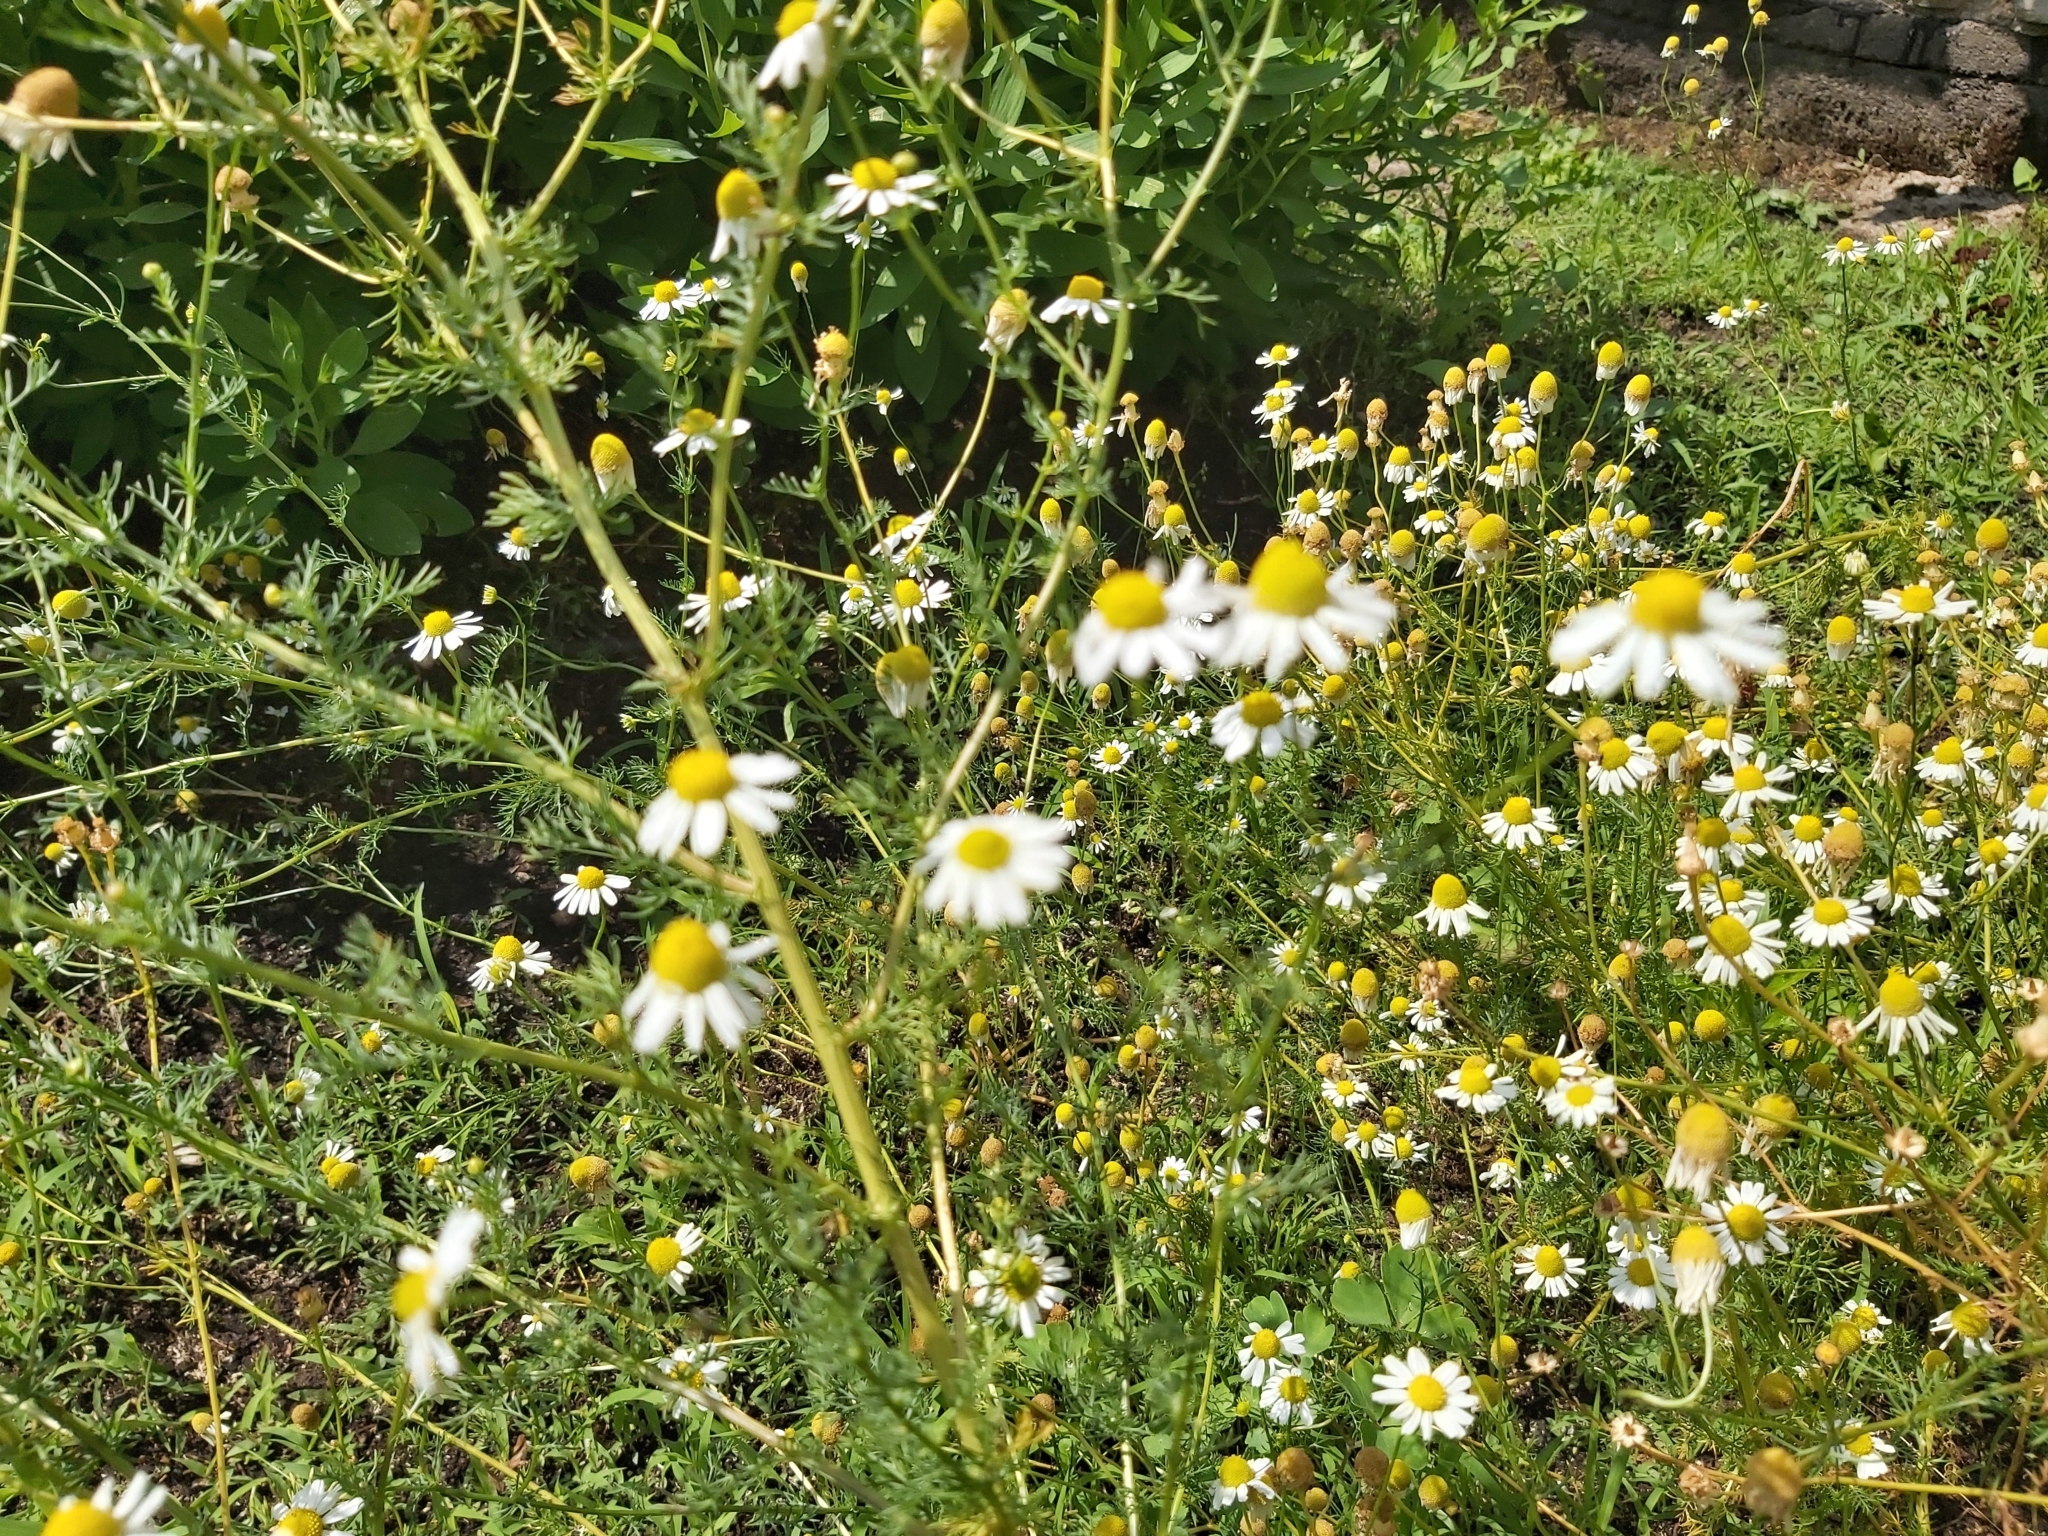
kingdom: Plantae
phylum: Tracheophyta
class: Magnoliopsida
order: Asterales
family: Asteraceae
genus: Matricaria
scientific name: Matricaria chamomilla
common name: Scented mayweed
